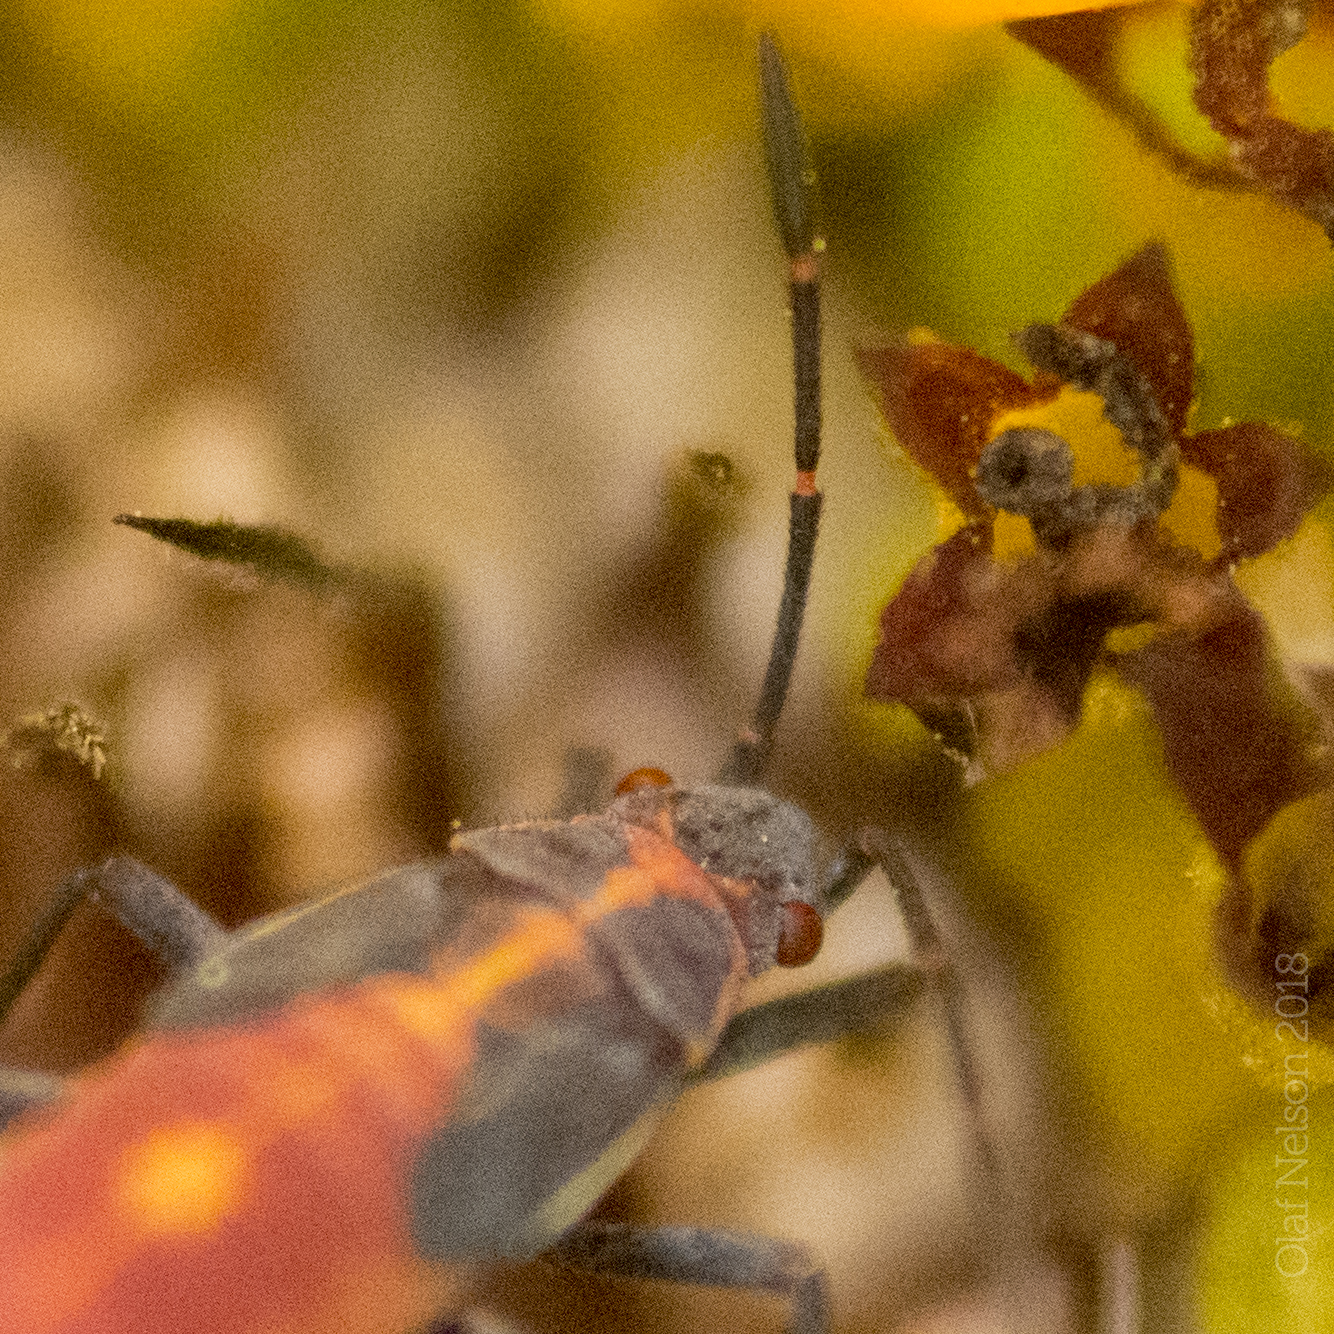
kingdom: Animalia
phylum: Arthropoda
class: Insecta
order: Hemiptera
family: Rhopalidae
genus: Boisea
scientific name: Boisea trivittata
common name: Boxelder bug
